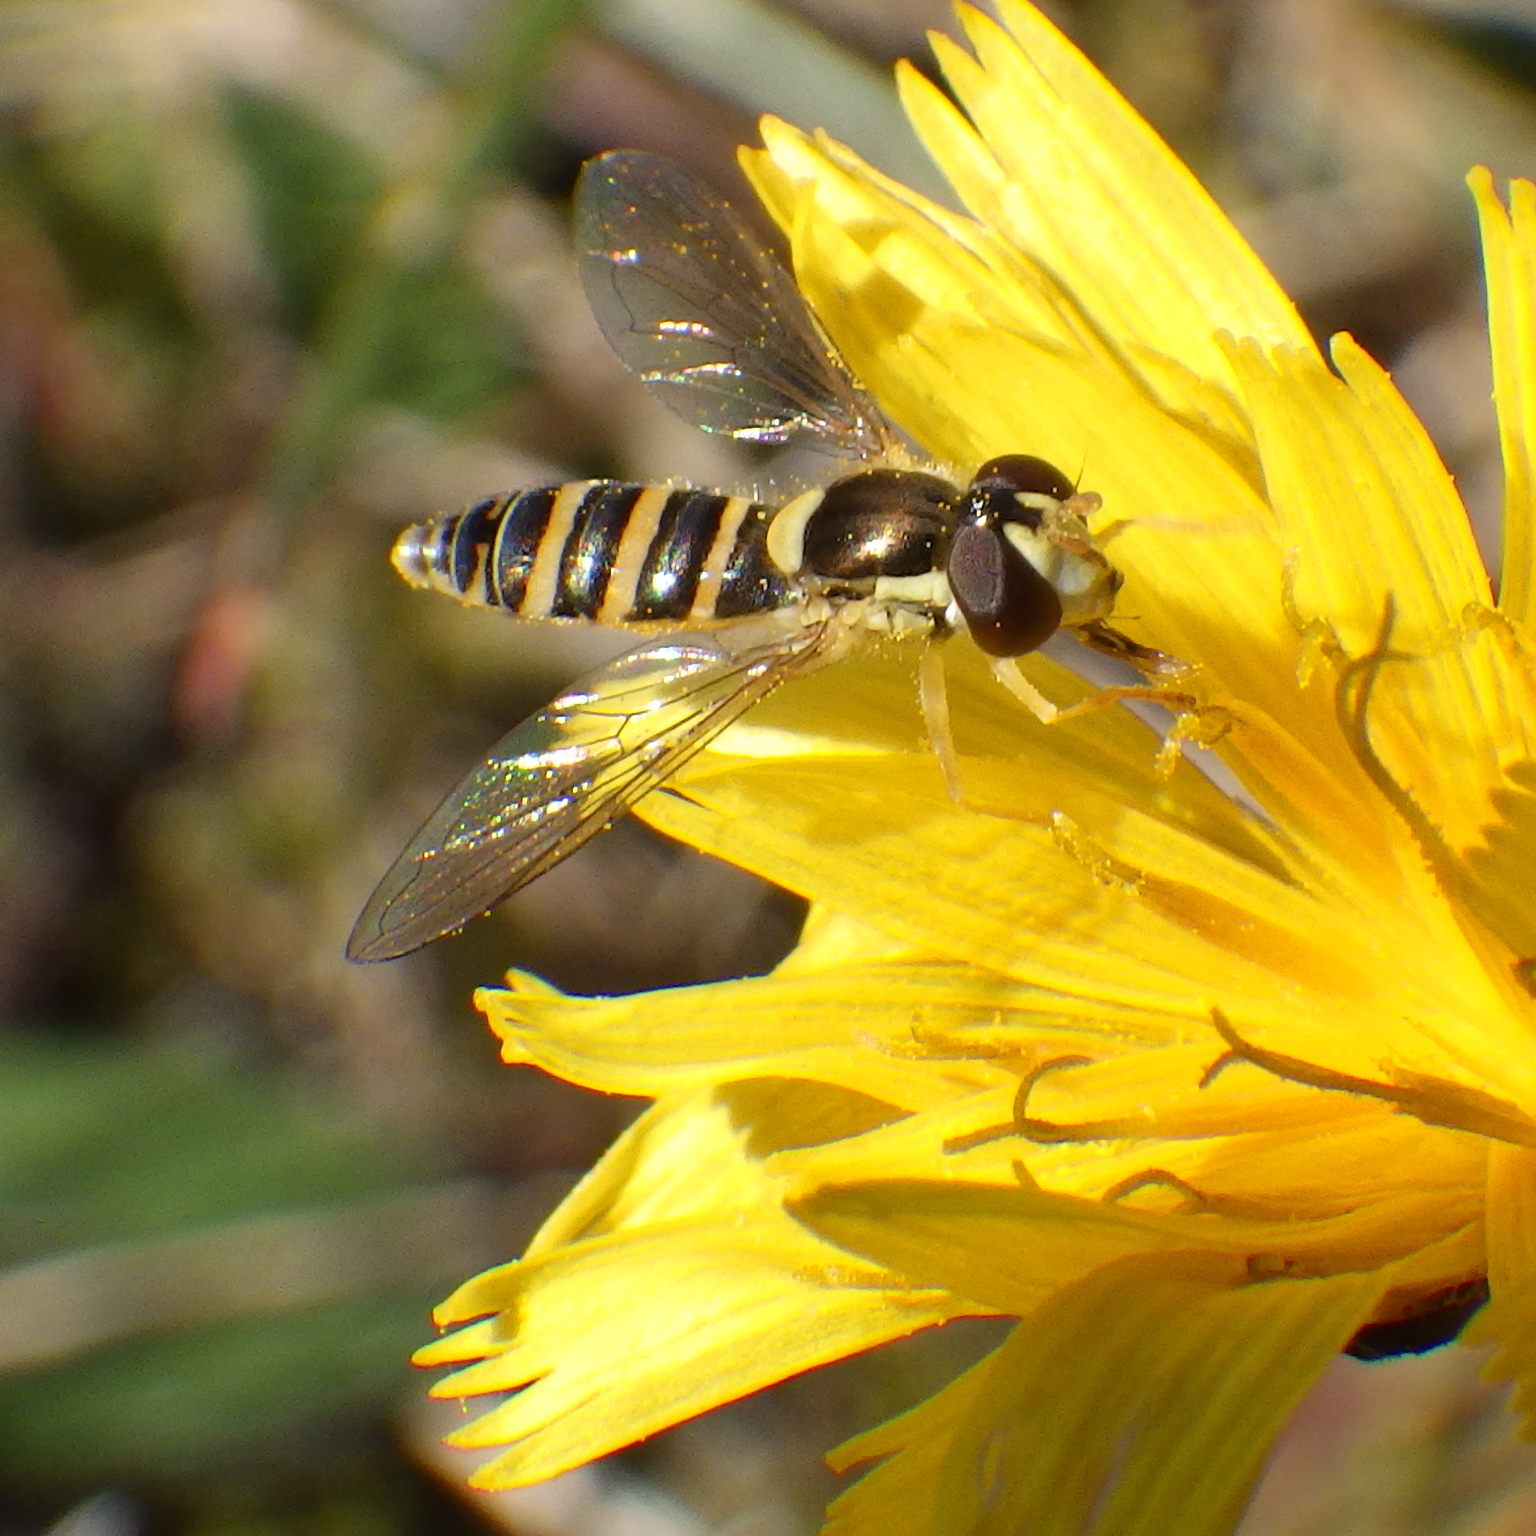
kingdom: Animalia
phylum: Arthropoda
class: Insecta
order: Diptera
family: Syrphidae
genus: Sphaerophoria
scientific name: Sphaerophoria
